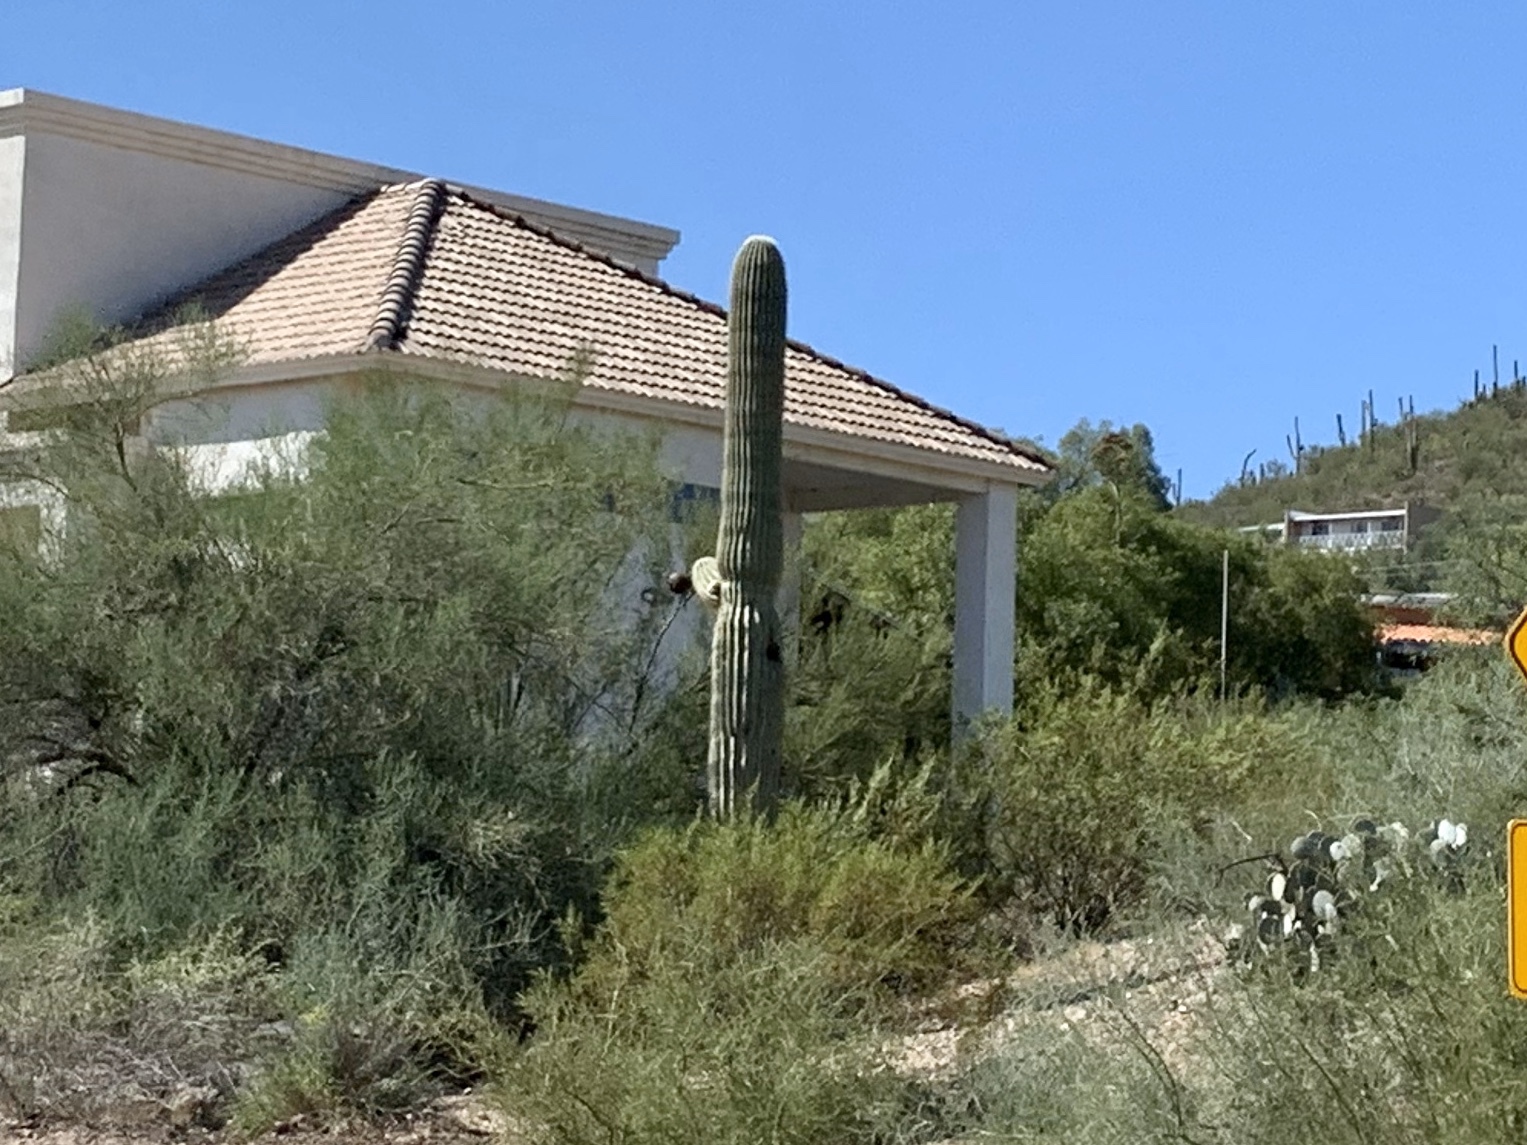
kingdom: Plantae
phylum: Tracheophyta
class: Magnoliopsida
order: Caryophyllales
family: Cactaceae
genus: Carnegiea
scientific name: Carnegiea gigantea
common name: Saguaro
